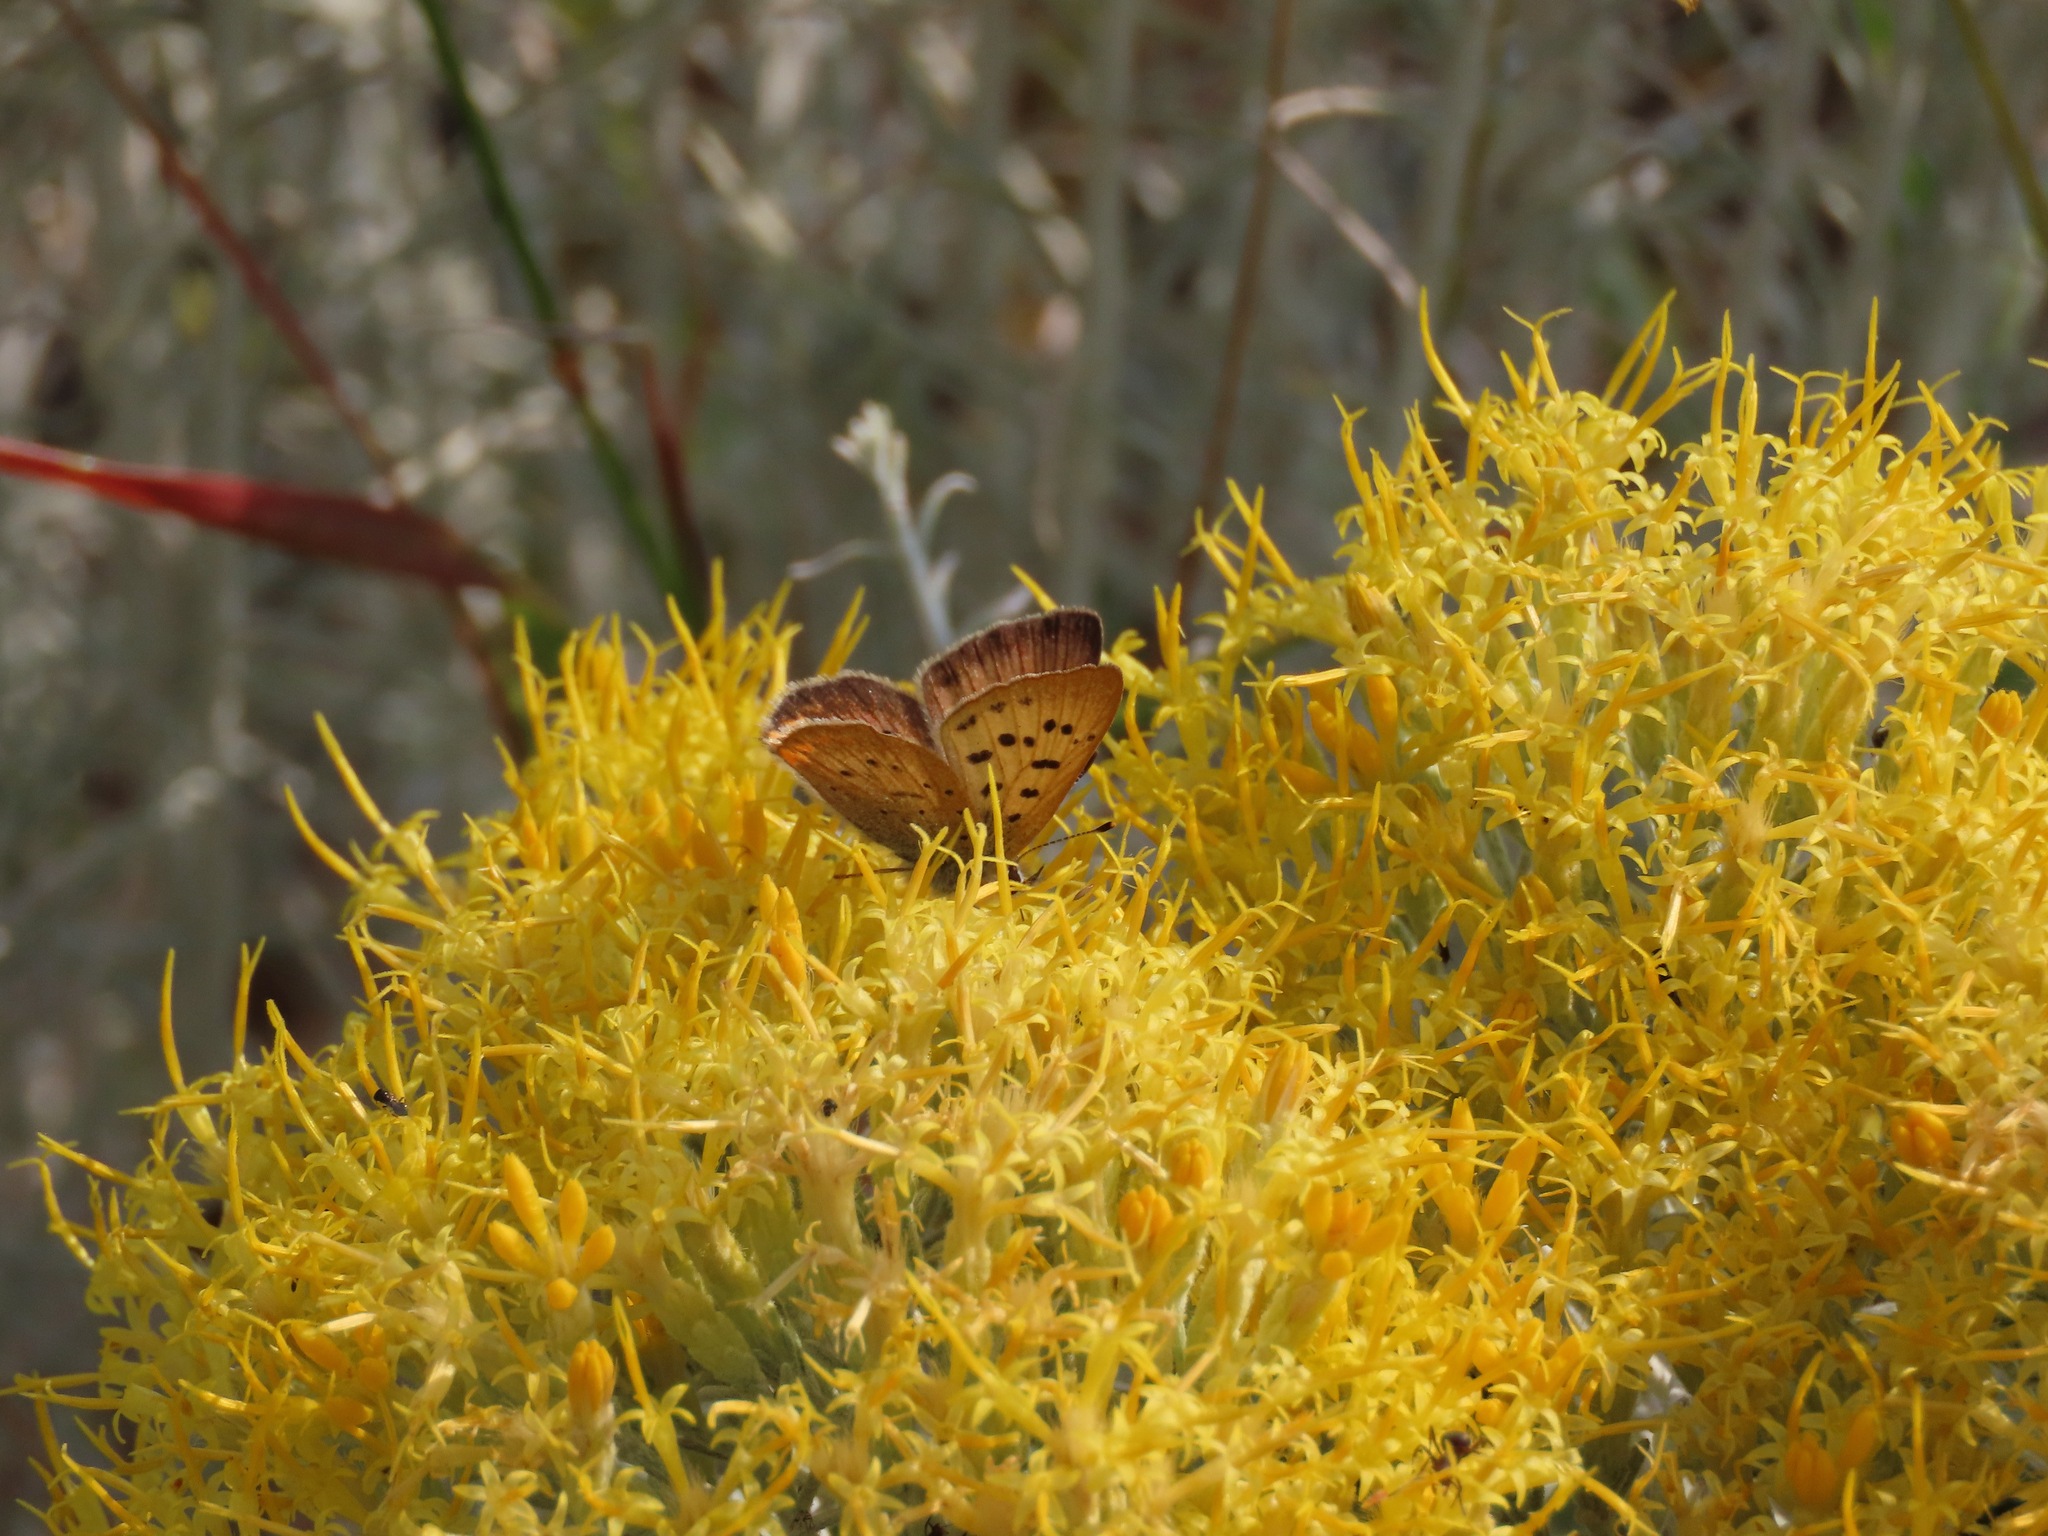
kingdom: Animalia
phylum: Arthropoda
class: Insecta
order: Lepidoptera
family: Lycaenidae
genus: Tharsalea
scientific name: Tharsalea helloides
